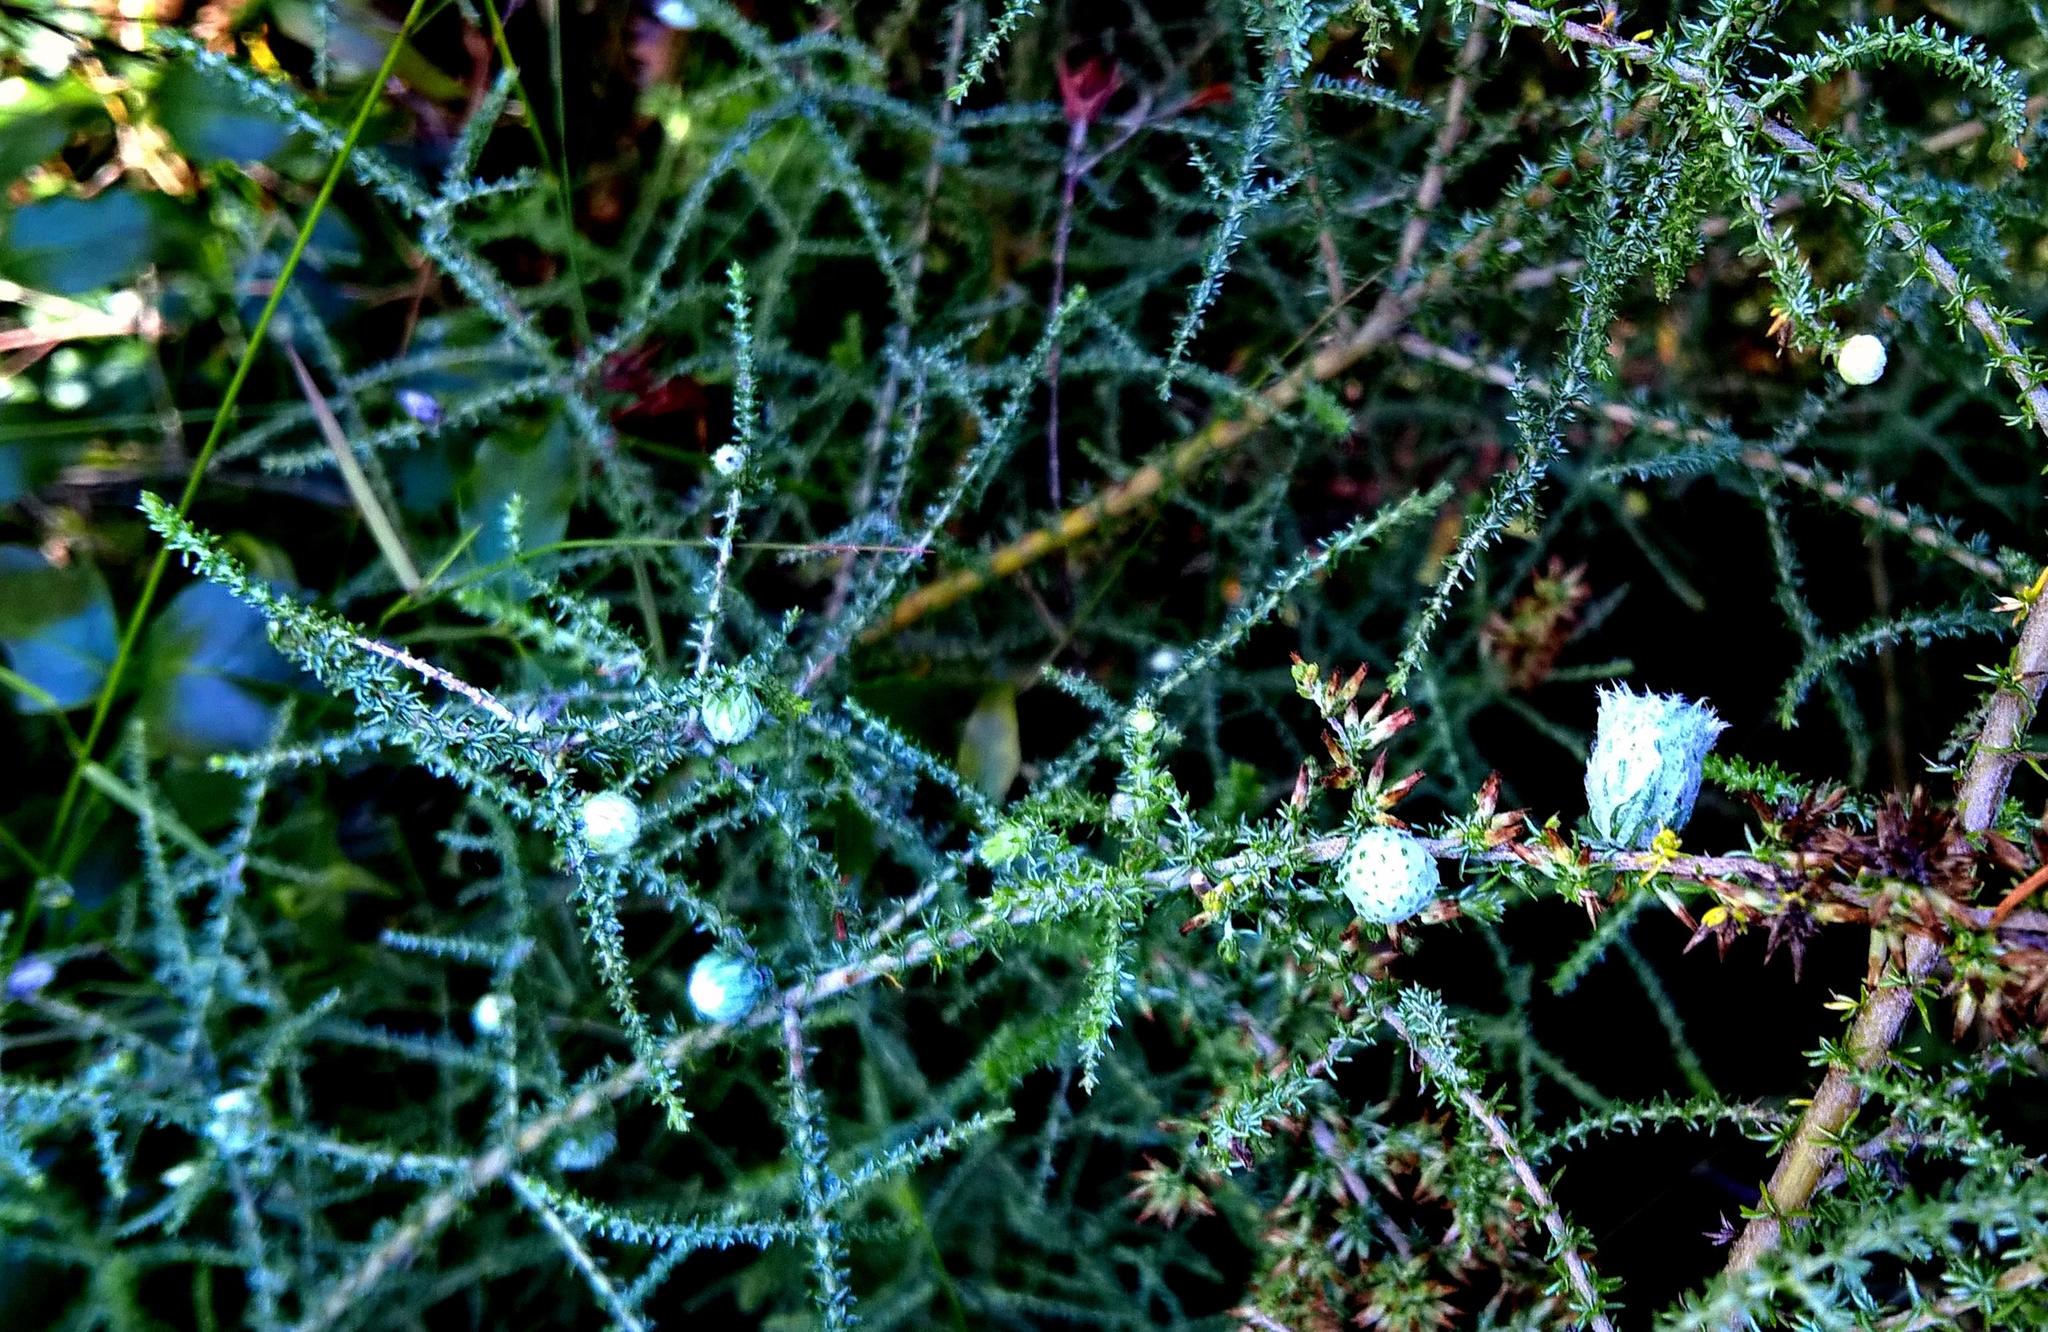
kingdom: Plantae
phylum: Tracheophyta
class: Magnoliopsida
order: Asterales
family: Asteraceae
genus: Seriphium
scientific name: Seriphium plumosum
